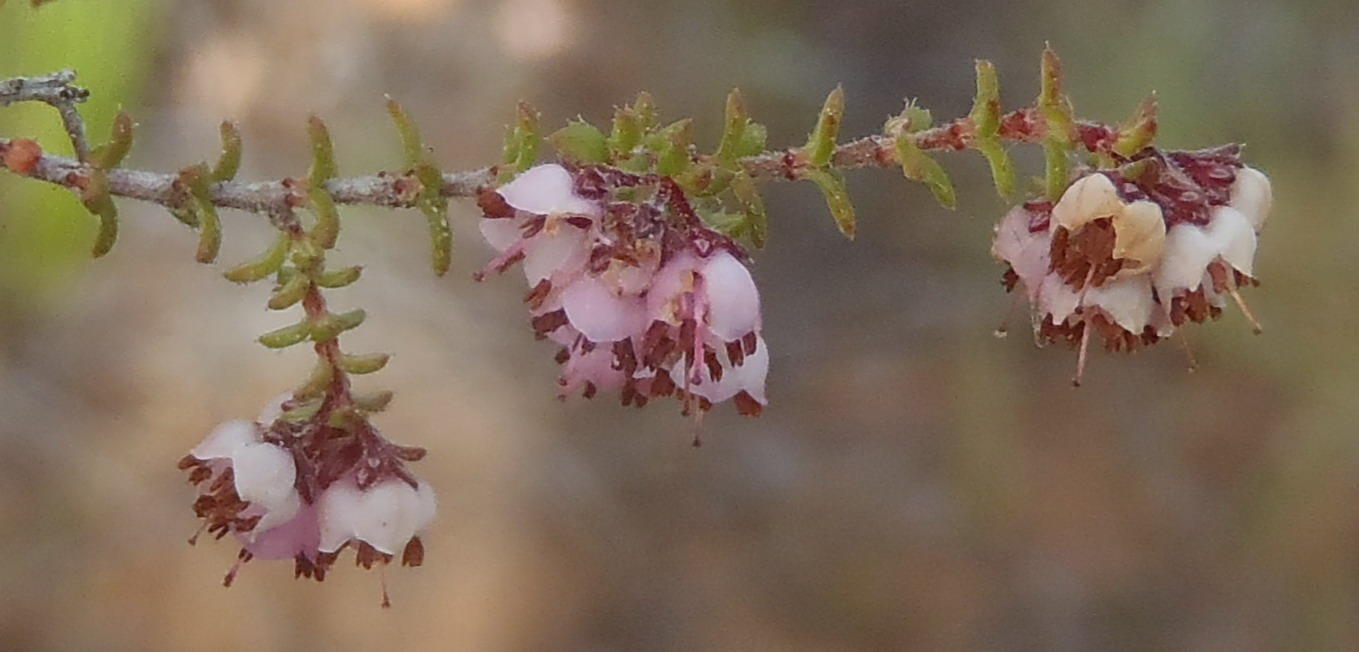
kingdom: Plantae
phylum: Tracheophyta
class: Magnoliopsida
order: Ericales
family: Ericaceae
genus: Erica
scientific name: Erica brachycentra
